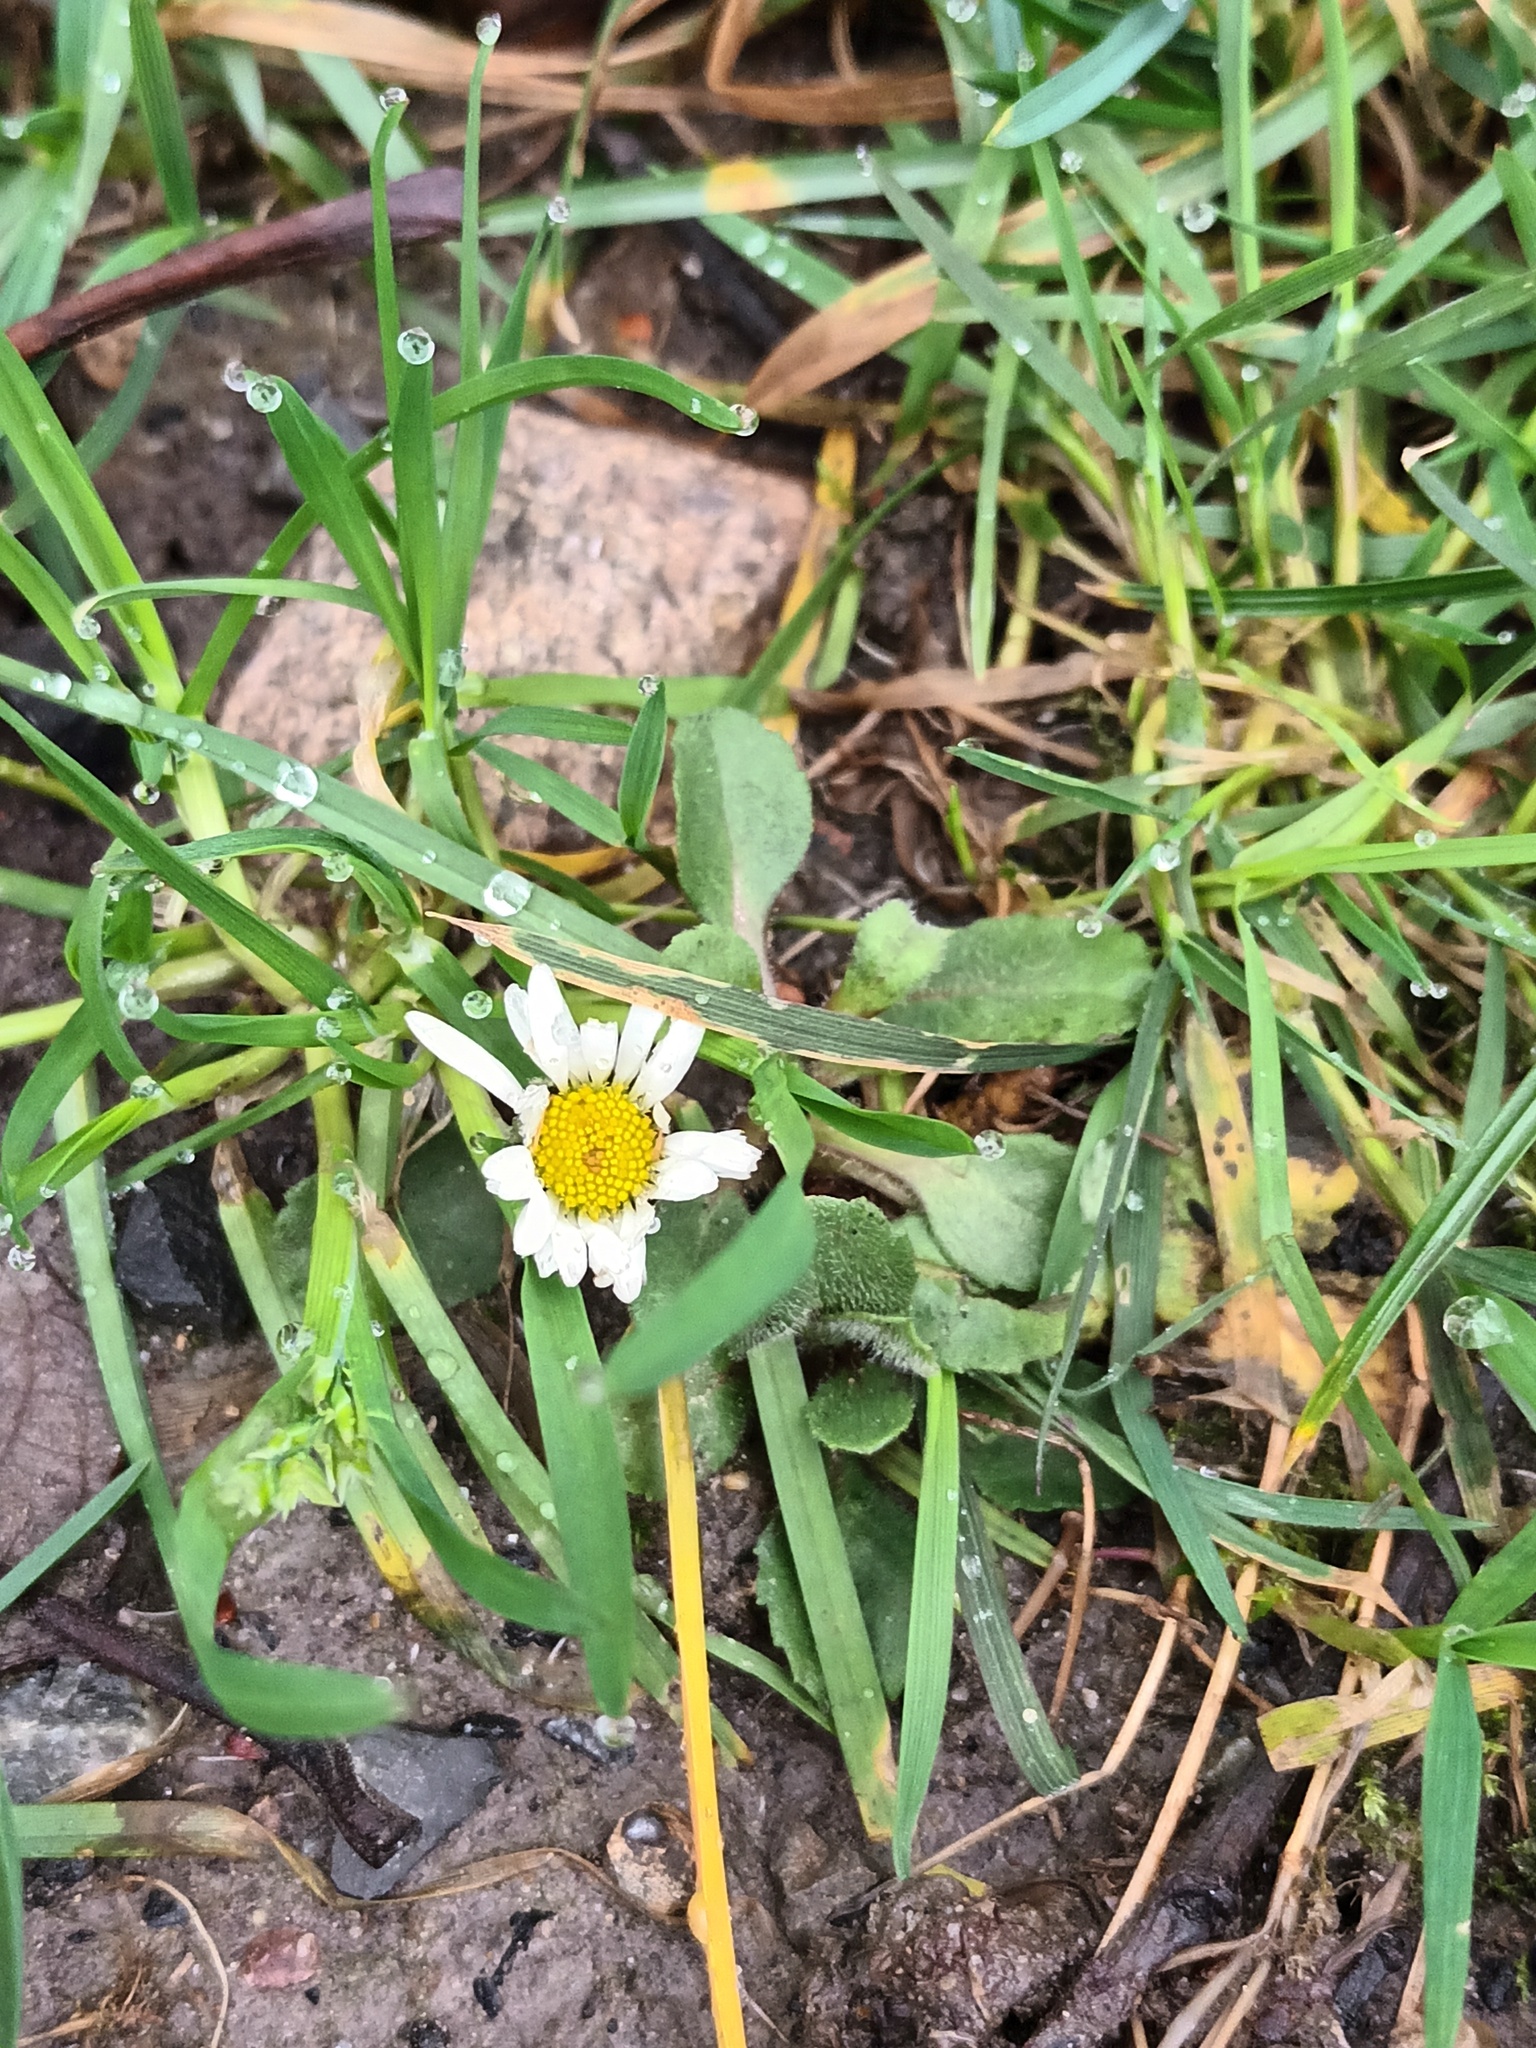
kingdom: Plantae
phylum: Tracheophyta
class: Magnoliopsida
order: Asterales
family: Asteraceae
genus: Bellis
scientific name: Bellis perennis
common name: Lawndaisy
